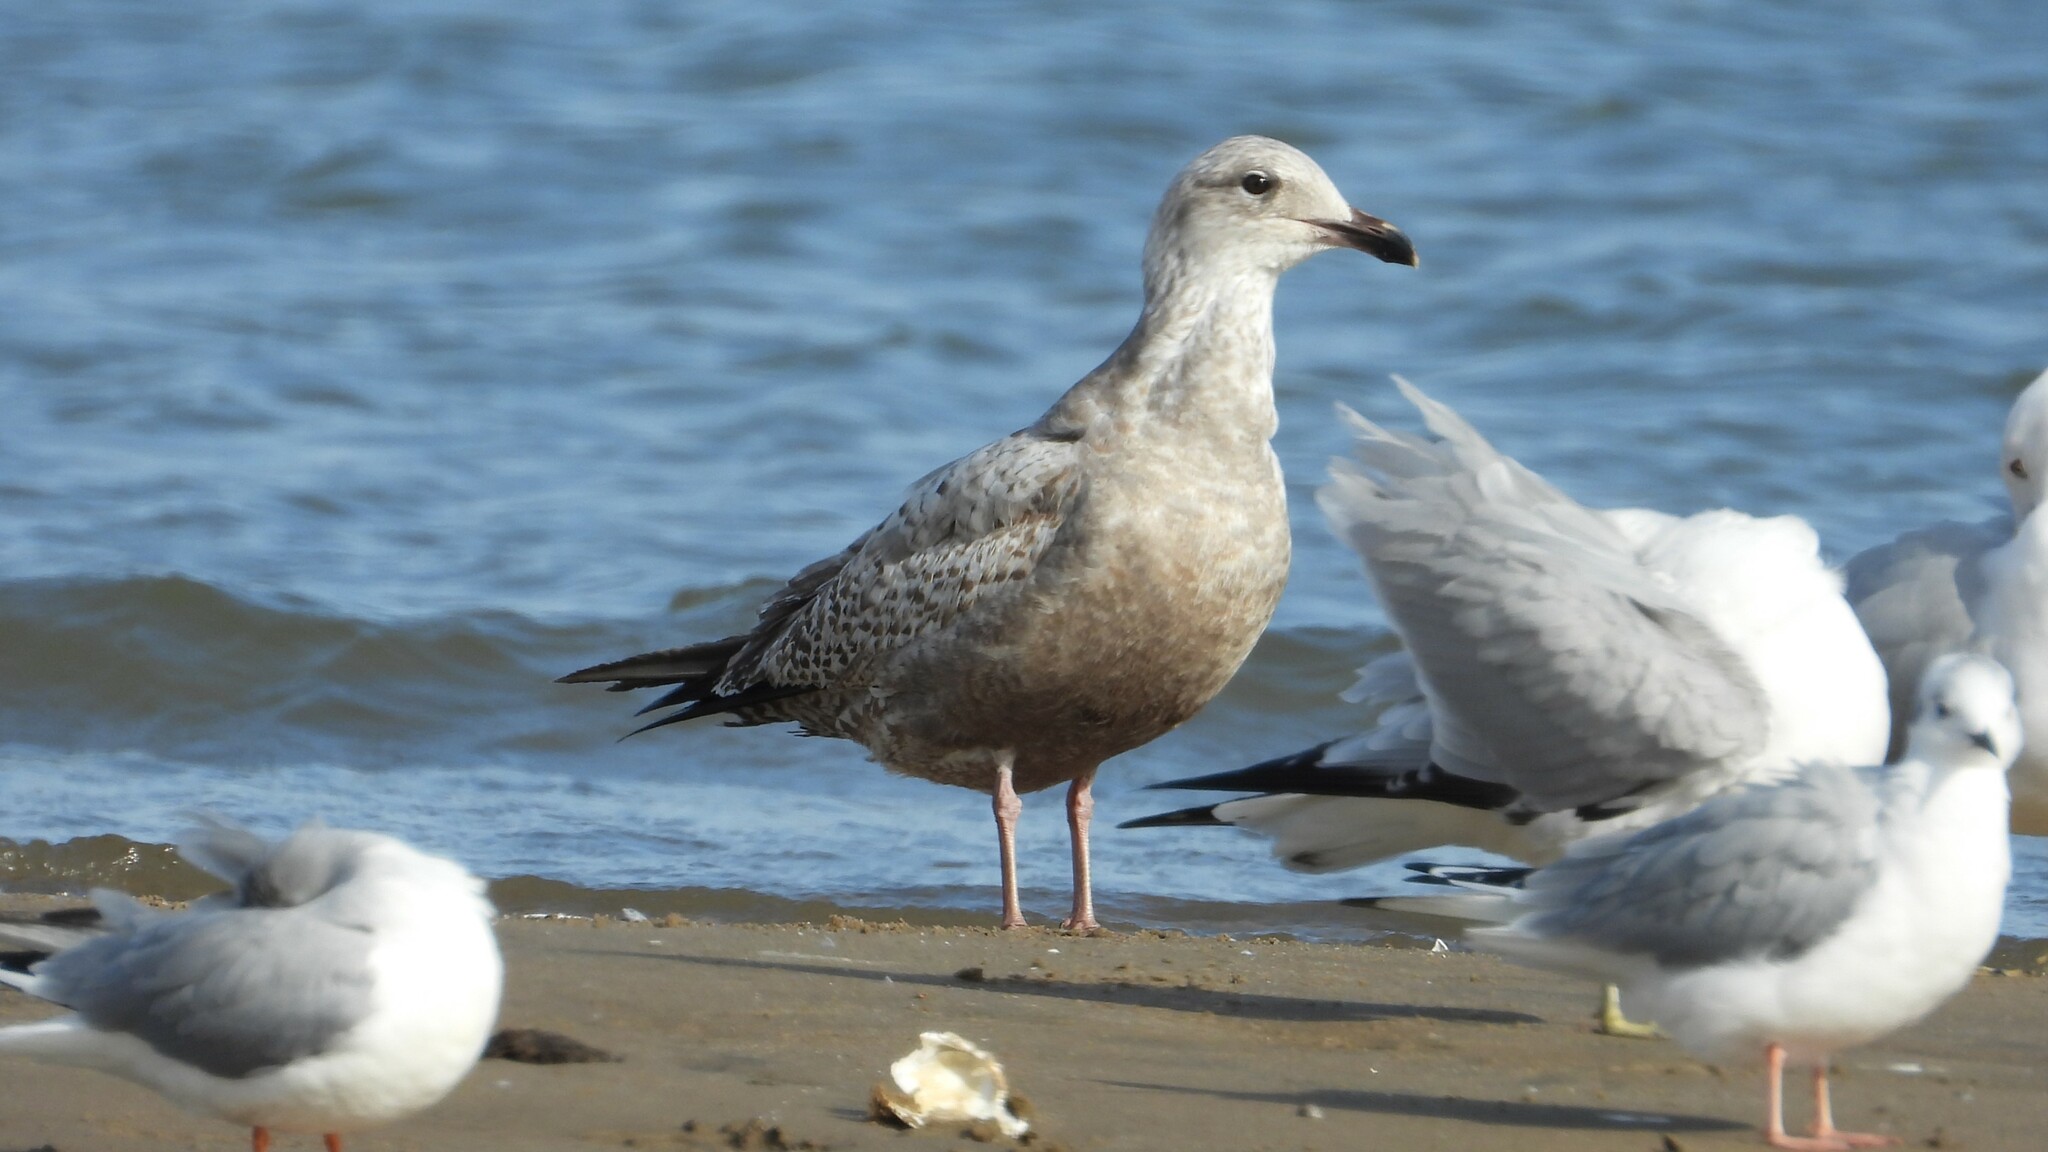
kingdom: Animalia
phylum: Chordata
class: Aves
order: Charadriiformes
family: Laridae
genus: Larus
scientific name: Larus argentatus
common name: Herring gull
